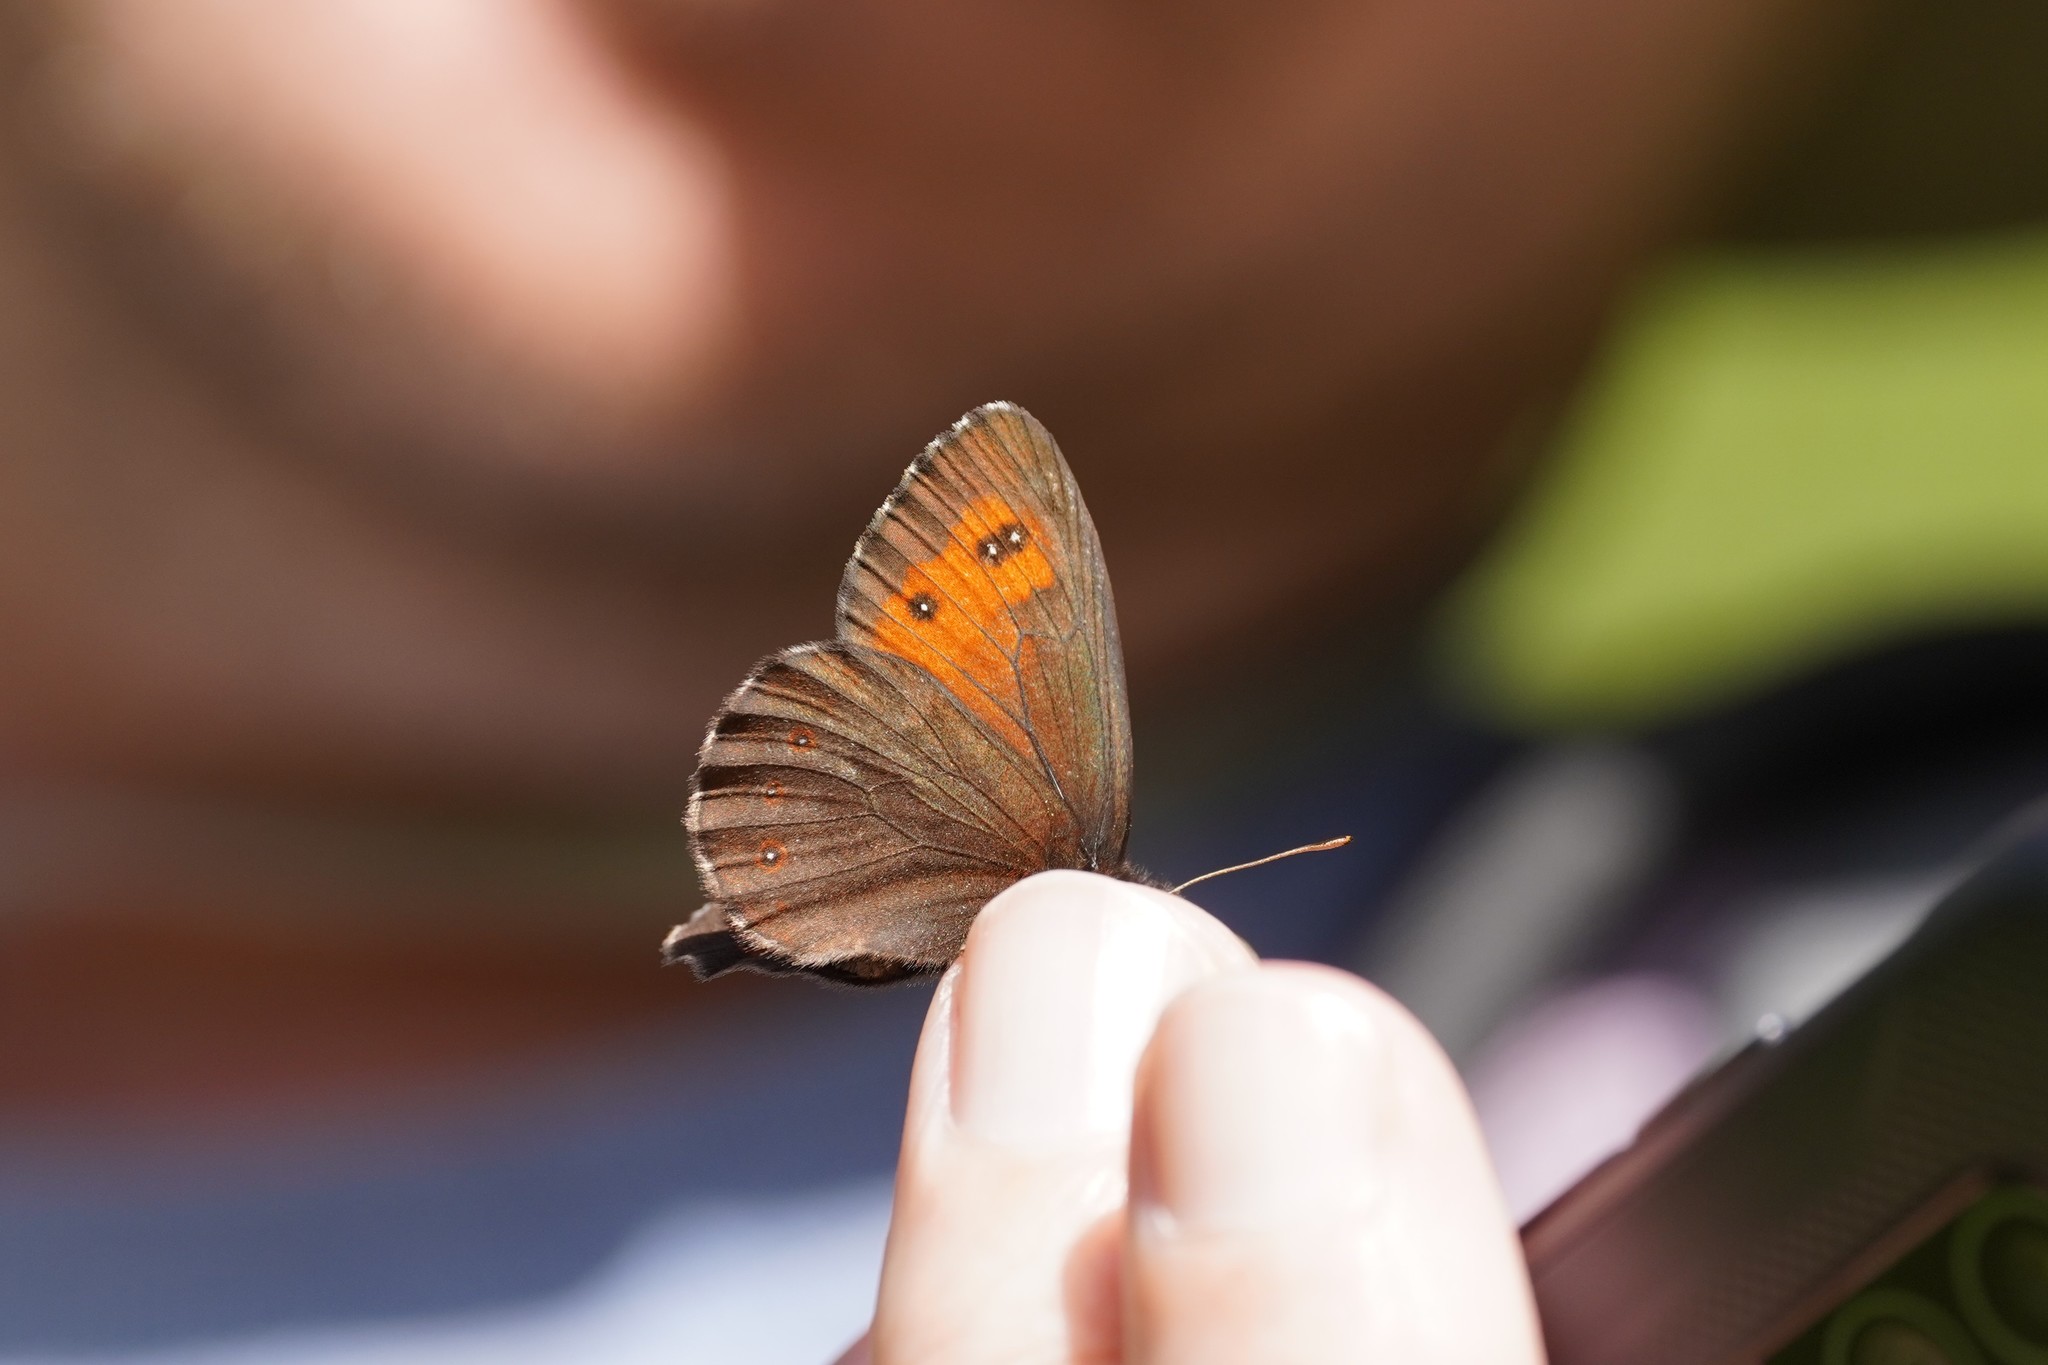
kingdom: Animalia
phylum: Arthropoda
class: Insecta
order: Lepidoptera
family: Nymphalidae
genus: Erebia
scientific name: Erebia euryale
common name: Large ringlet
